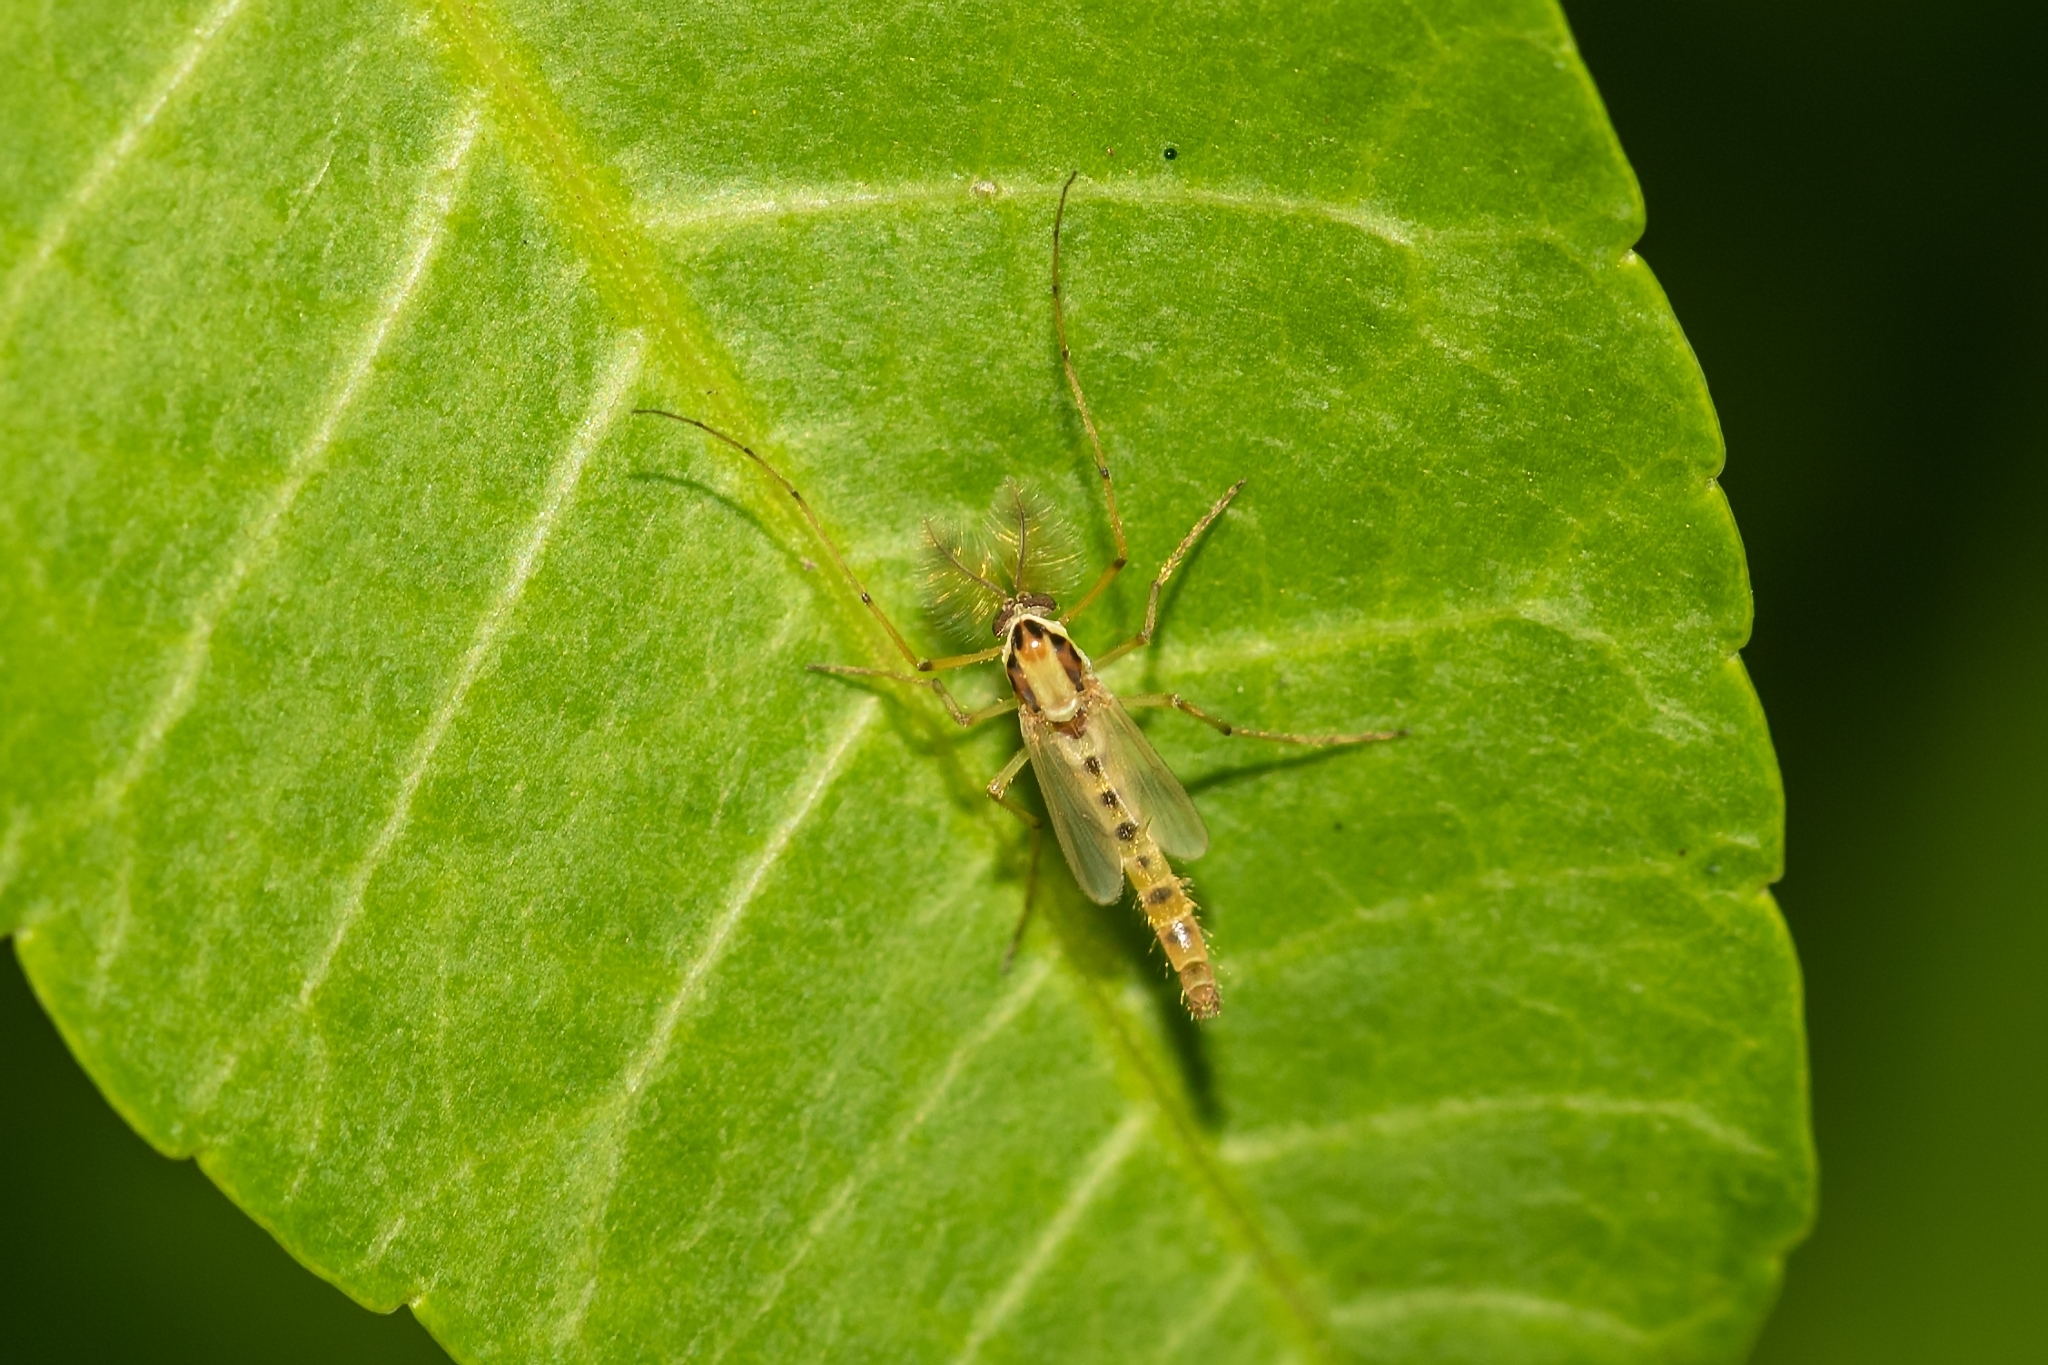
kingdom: Animalia
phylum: Arthropoda
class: Insecta
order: Diptera
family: Chironomidae
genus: Goeldichironomus
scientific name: Goeldichironomus carus
